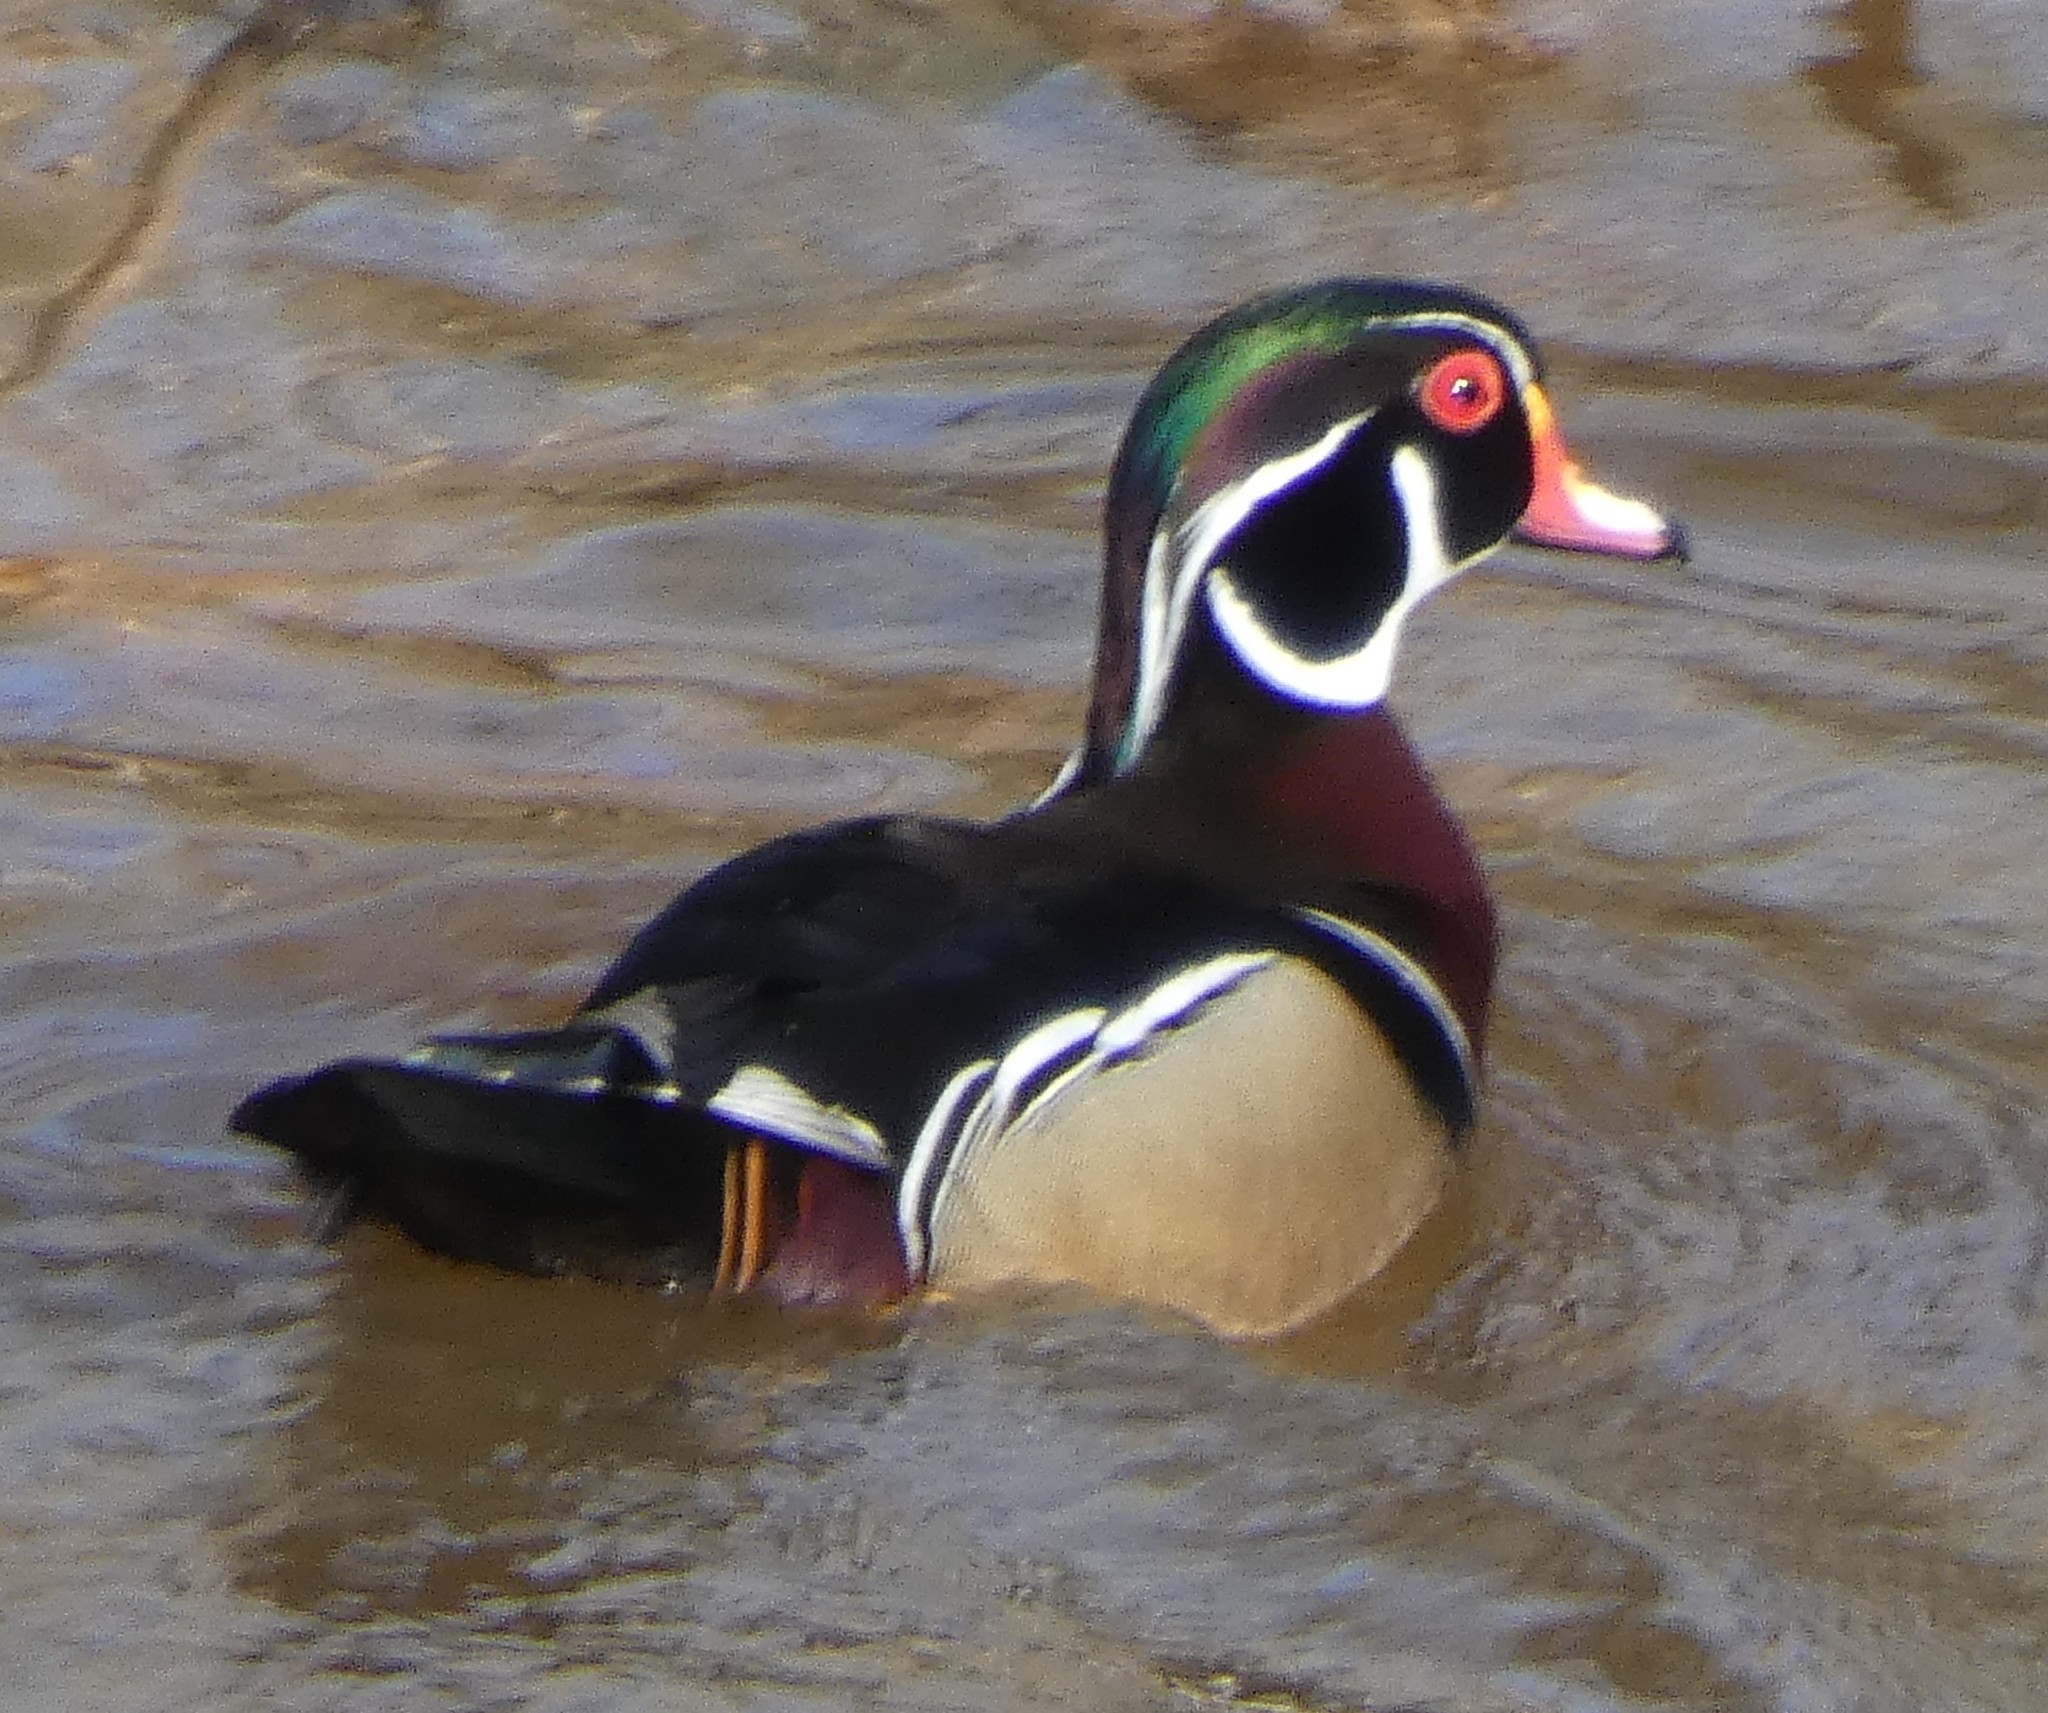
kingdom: Animalia
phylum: Chordata
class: Aves
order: Anseriformes
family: Anatidae
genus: Aix
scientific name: Aix sponsa
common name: Wood duck
